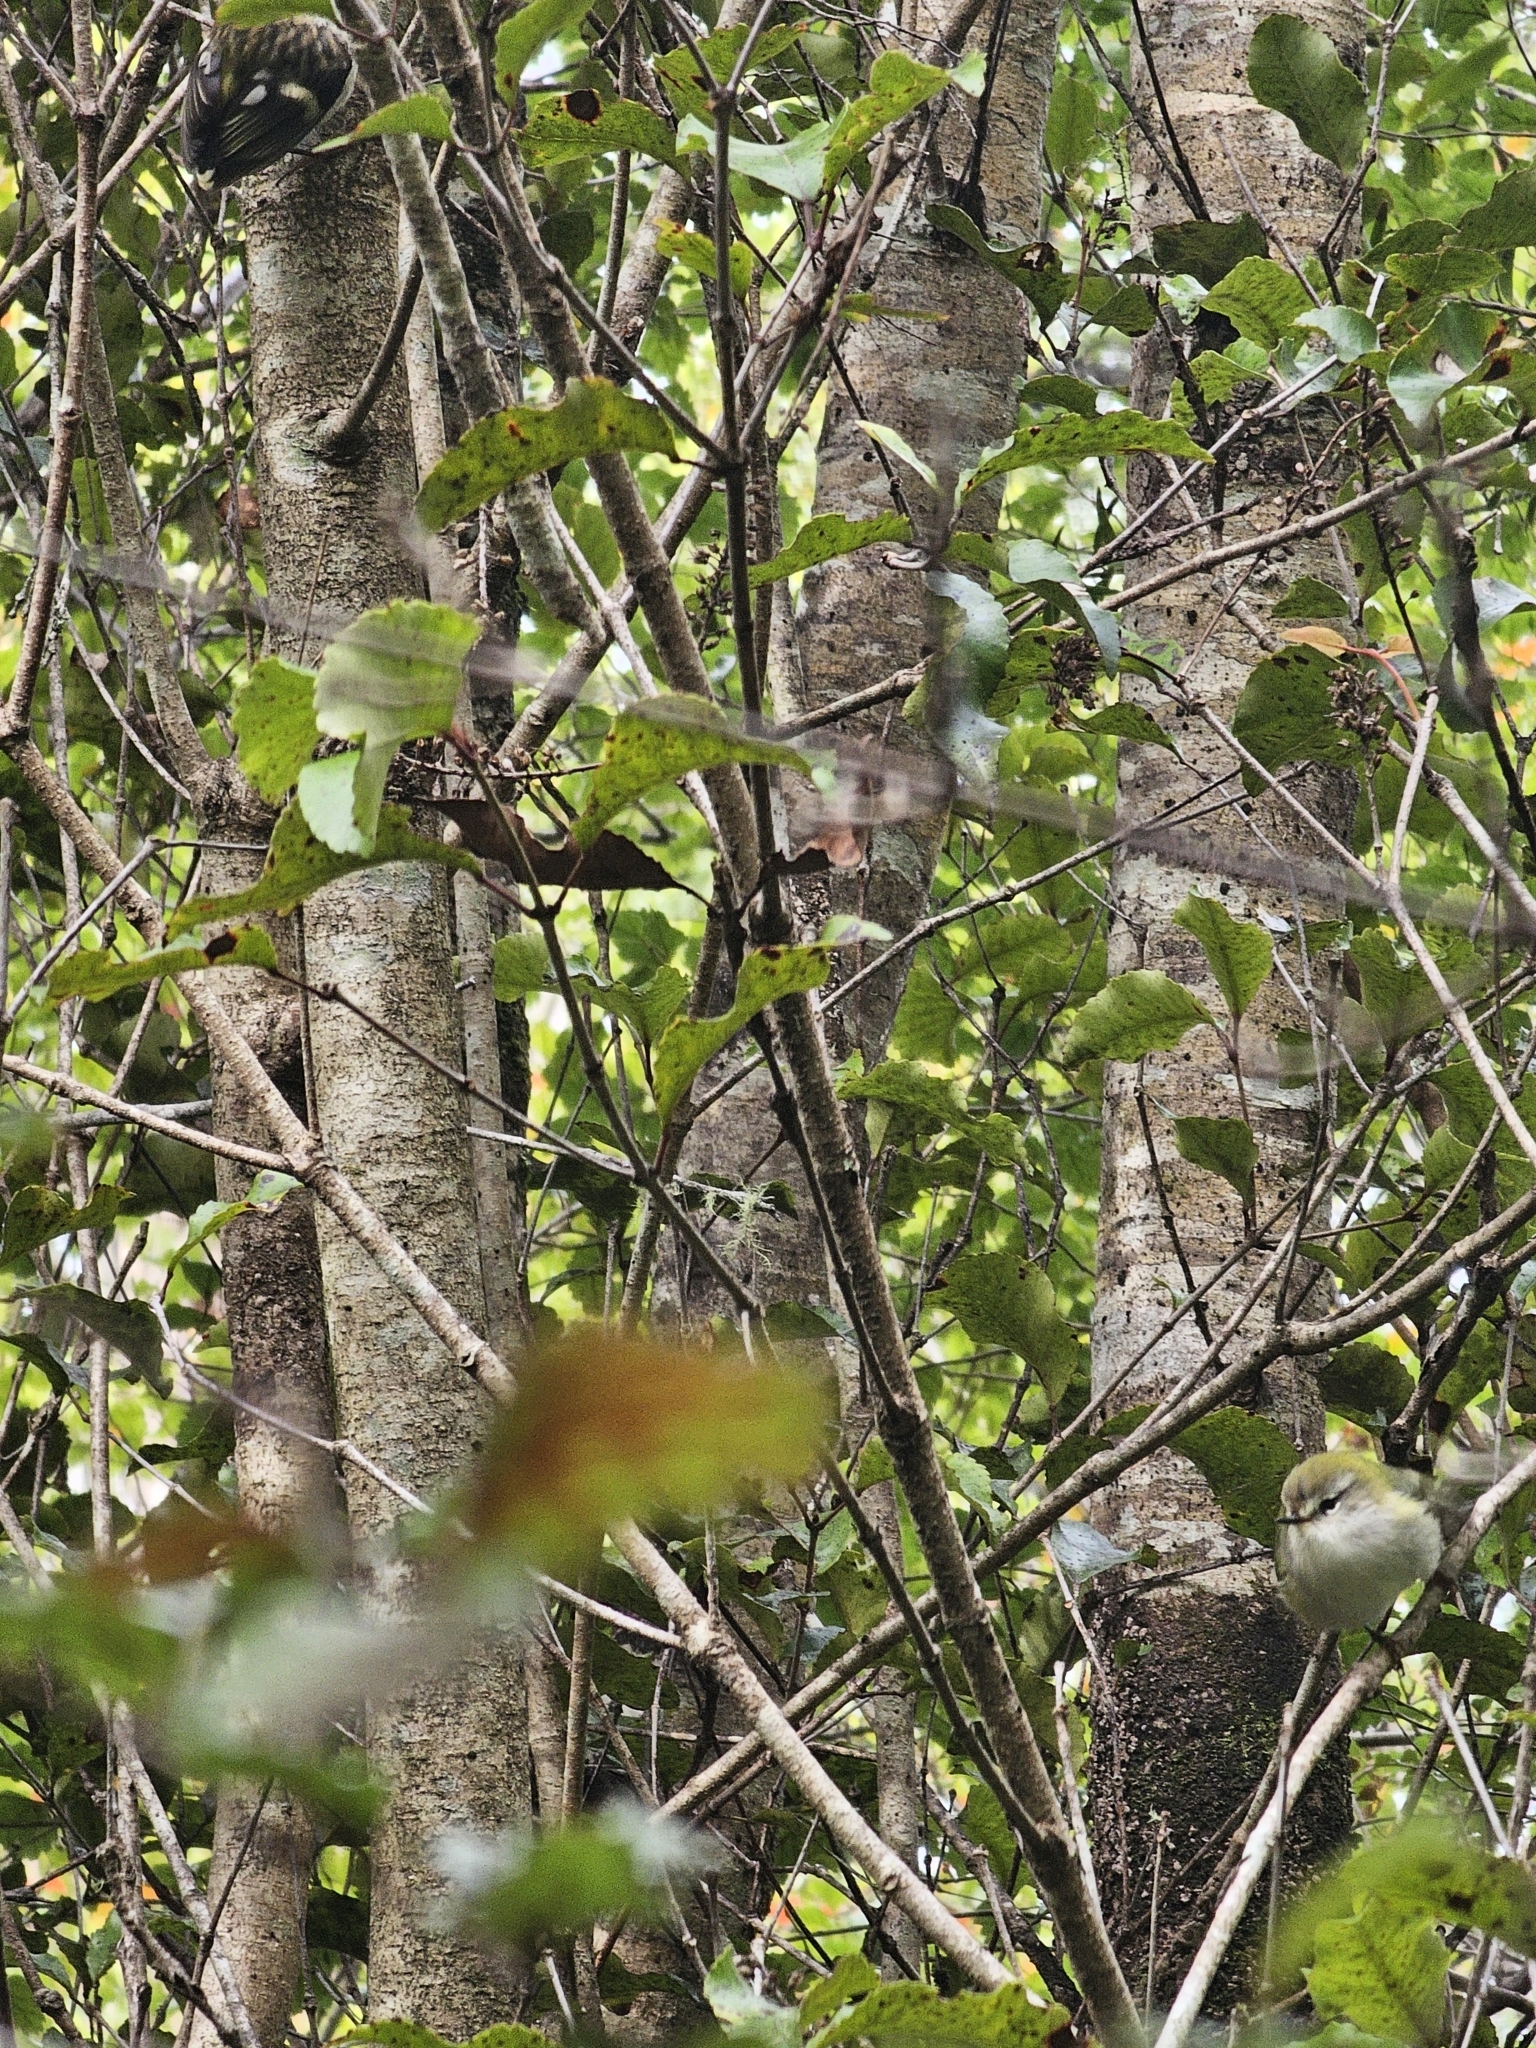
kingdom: Animalia
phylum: Chordata
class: Aves
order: Passeriformes
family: Acanthisittidae
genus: Acanthisitta
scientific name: Acanthisitta chloris
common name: Rifleman
